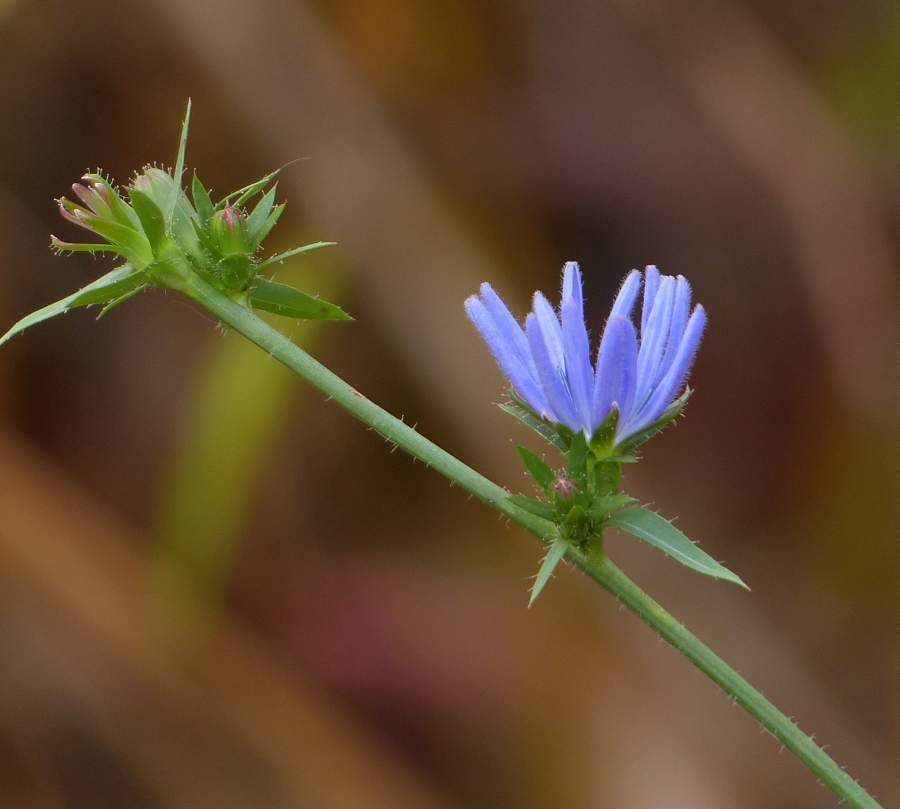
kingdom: Plantae
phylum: Tracheophyta
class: Magnoliopsida
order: Asterales
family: Asteraceae
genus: Cichorium
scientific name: Cichorium intybus
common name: Chicory
